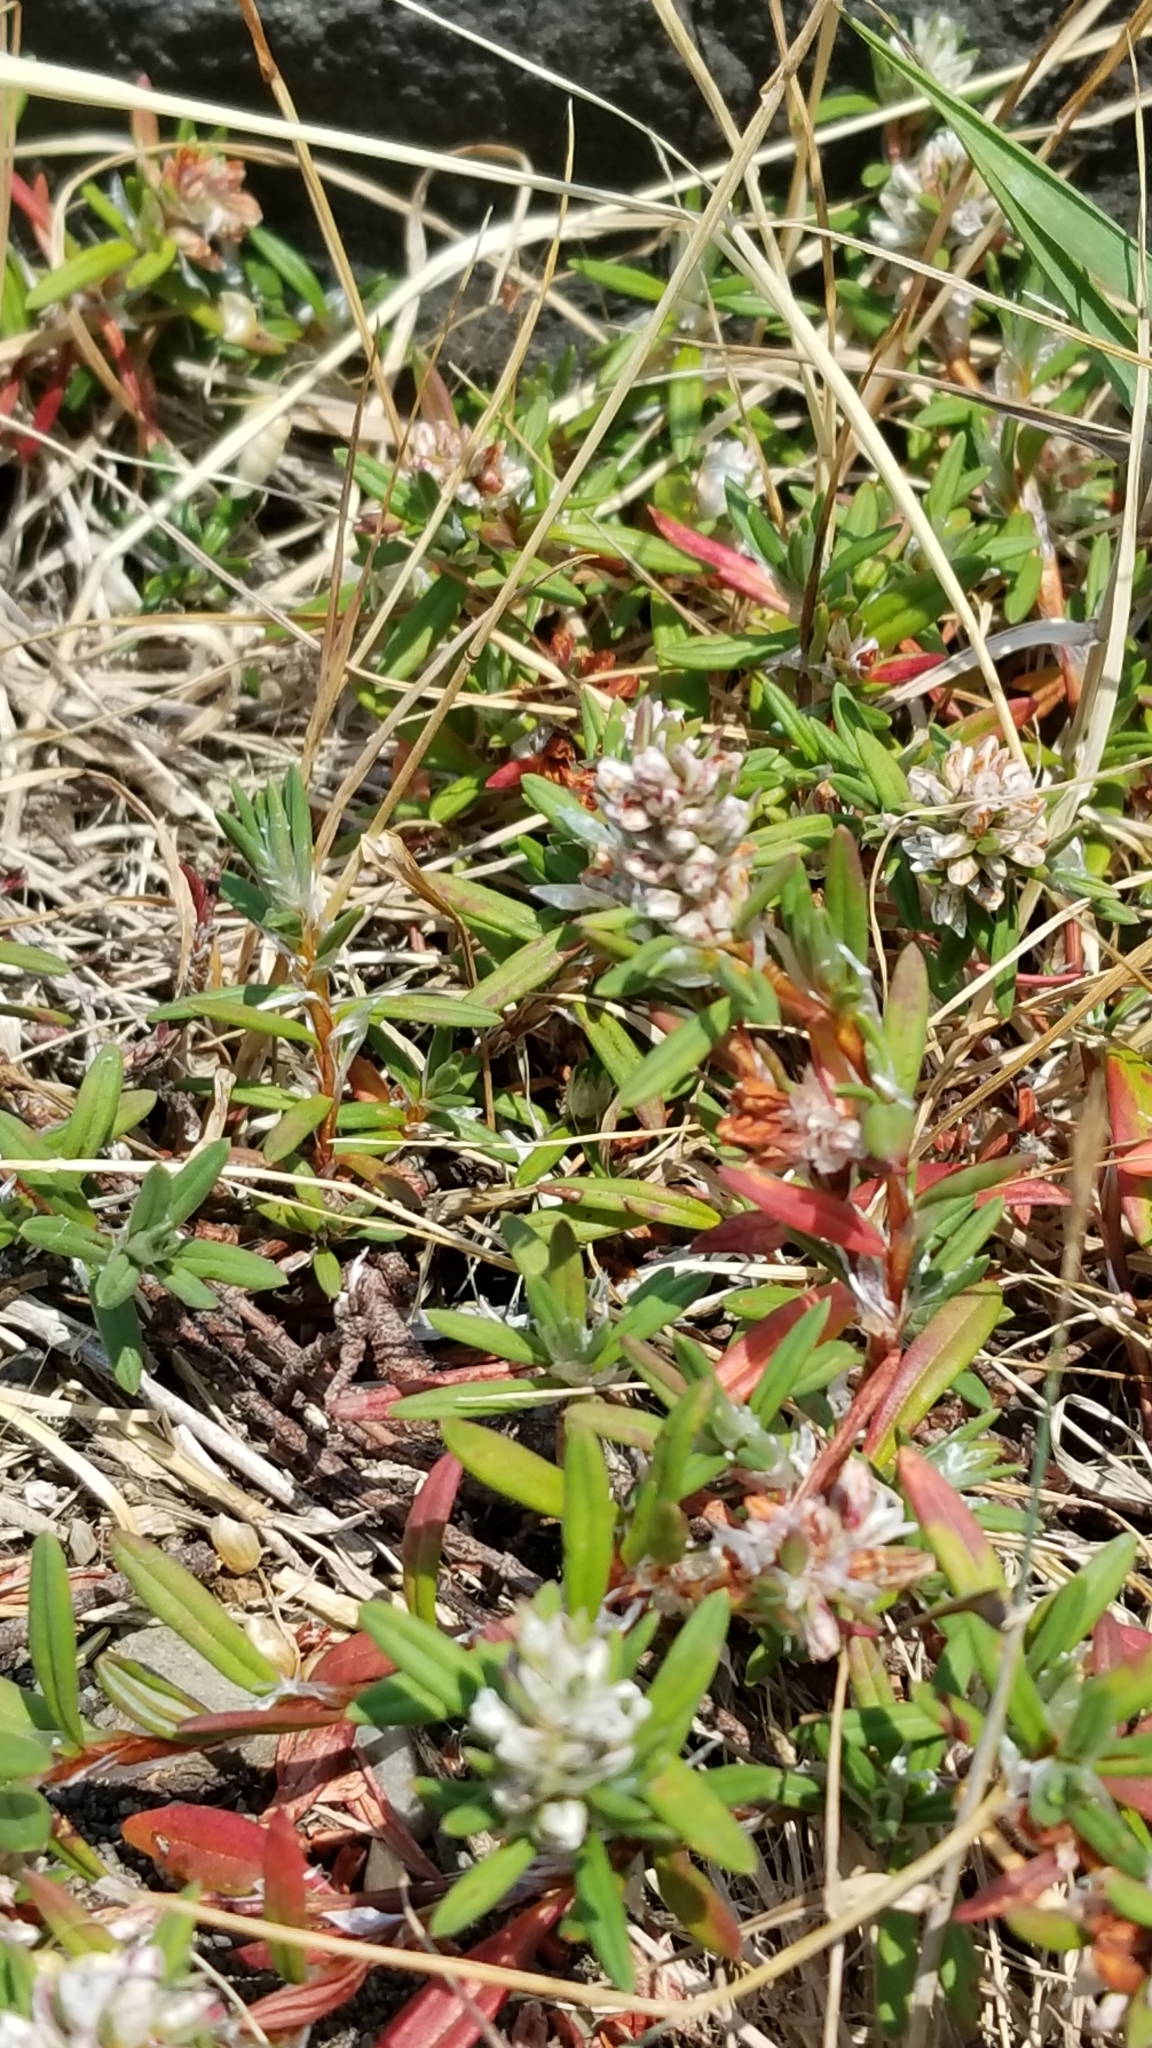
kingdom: Plantae
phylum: Tracheophyta
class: Magnoliopsida
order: Caryophyllales
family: Polygonaceae
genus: Polygonum
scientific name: Polygonum paronychia
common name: Dune knotweed
